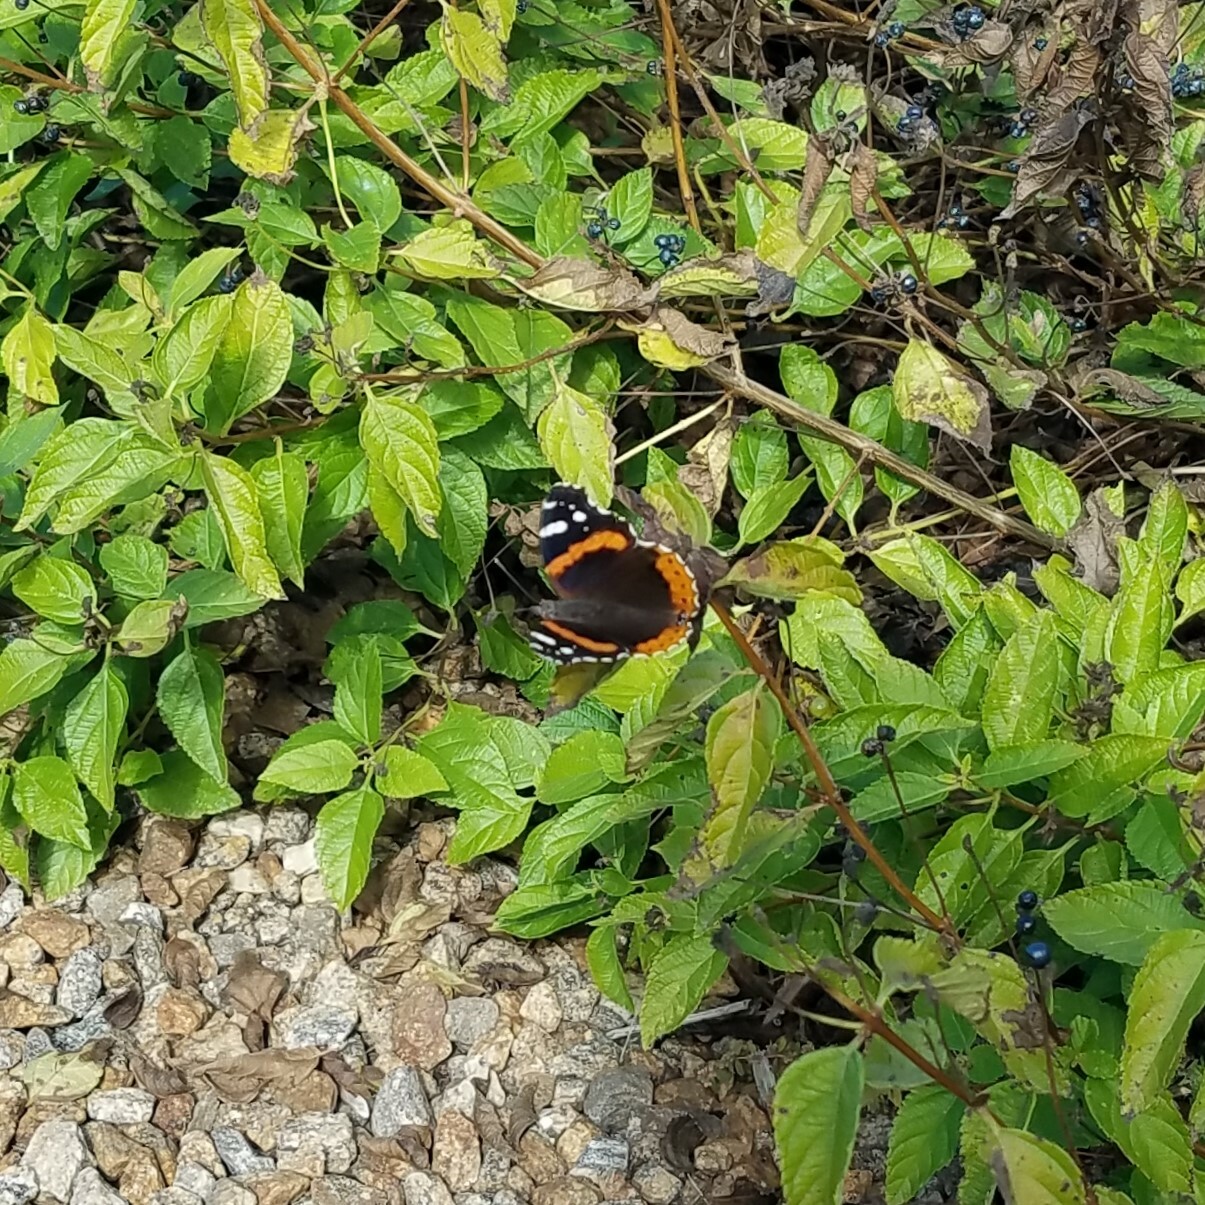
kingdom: Animalia
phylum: Arthropoda
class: Insecta
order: Lepidoptera
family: Nymphalidae
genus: Vanessa
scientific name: Vanessa atalanta
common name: Red admiral
